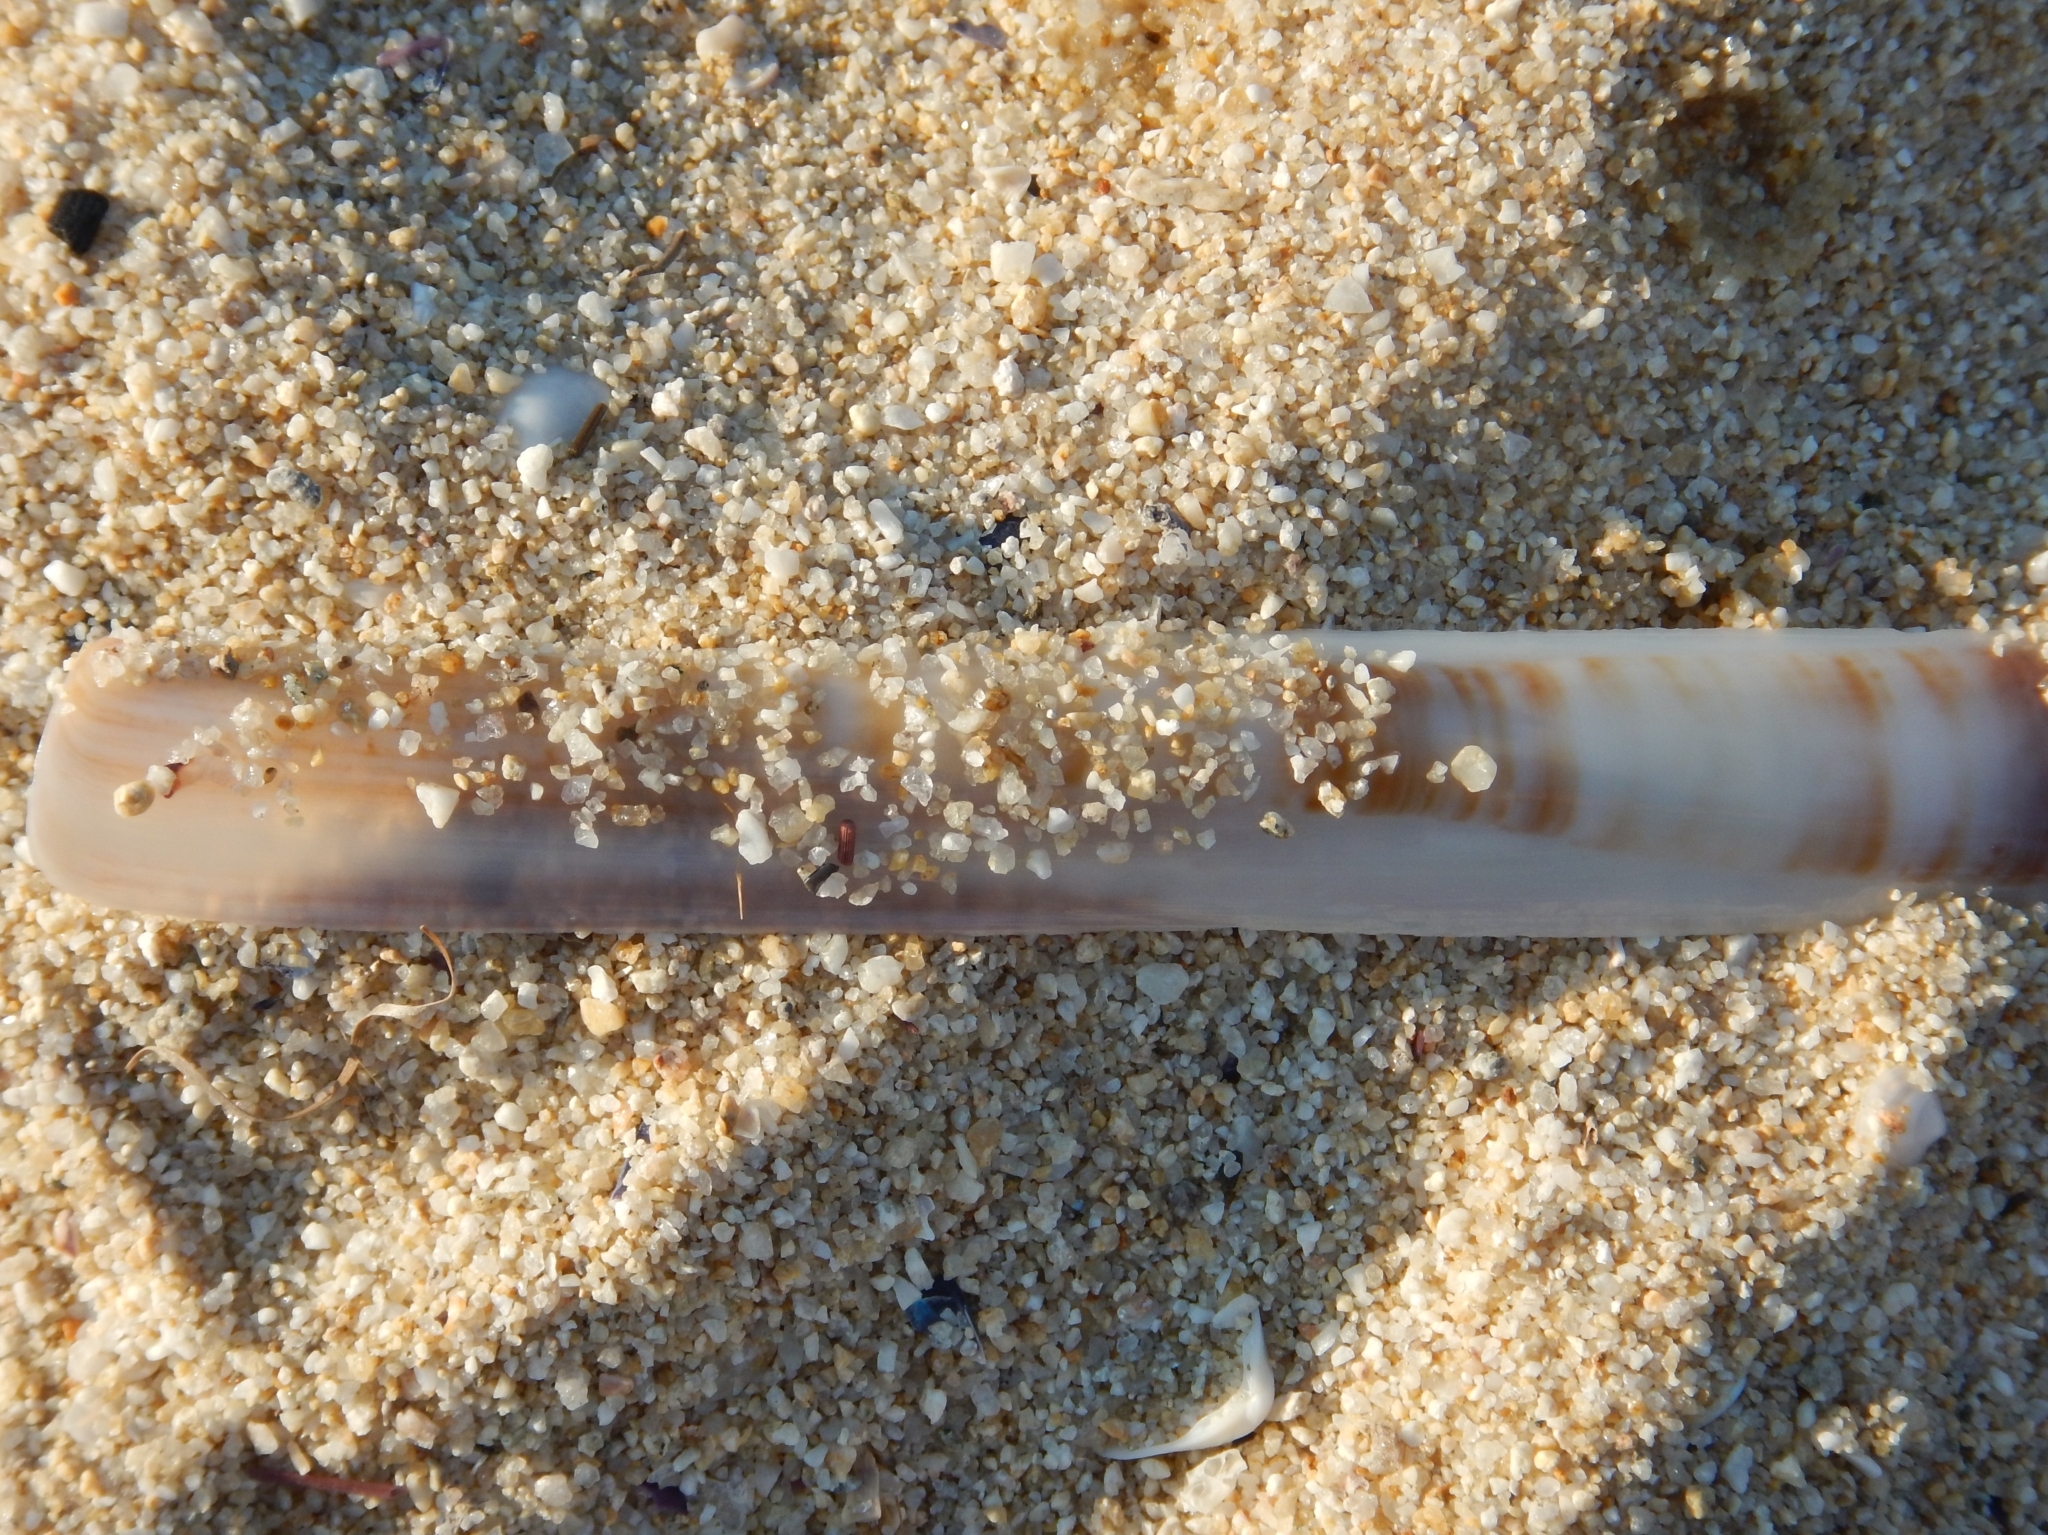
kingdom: Animalia
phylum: Mollusca
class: Bivalvia
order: Adapedonta
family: Pharidae
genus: Ensis
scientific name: Ensis minor
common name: Minor jackknife clam
